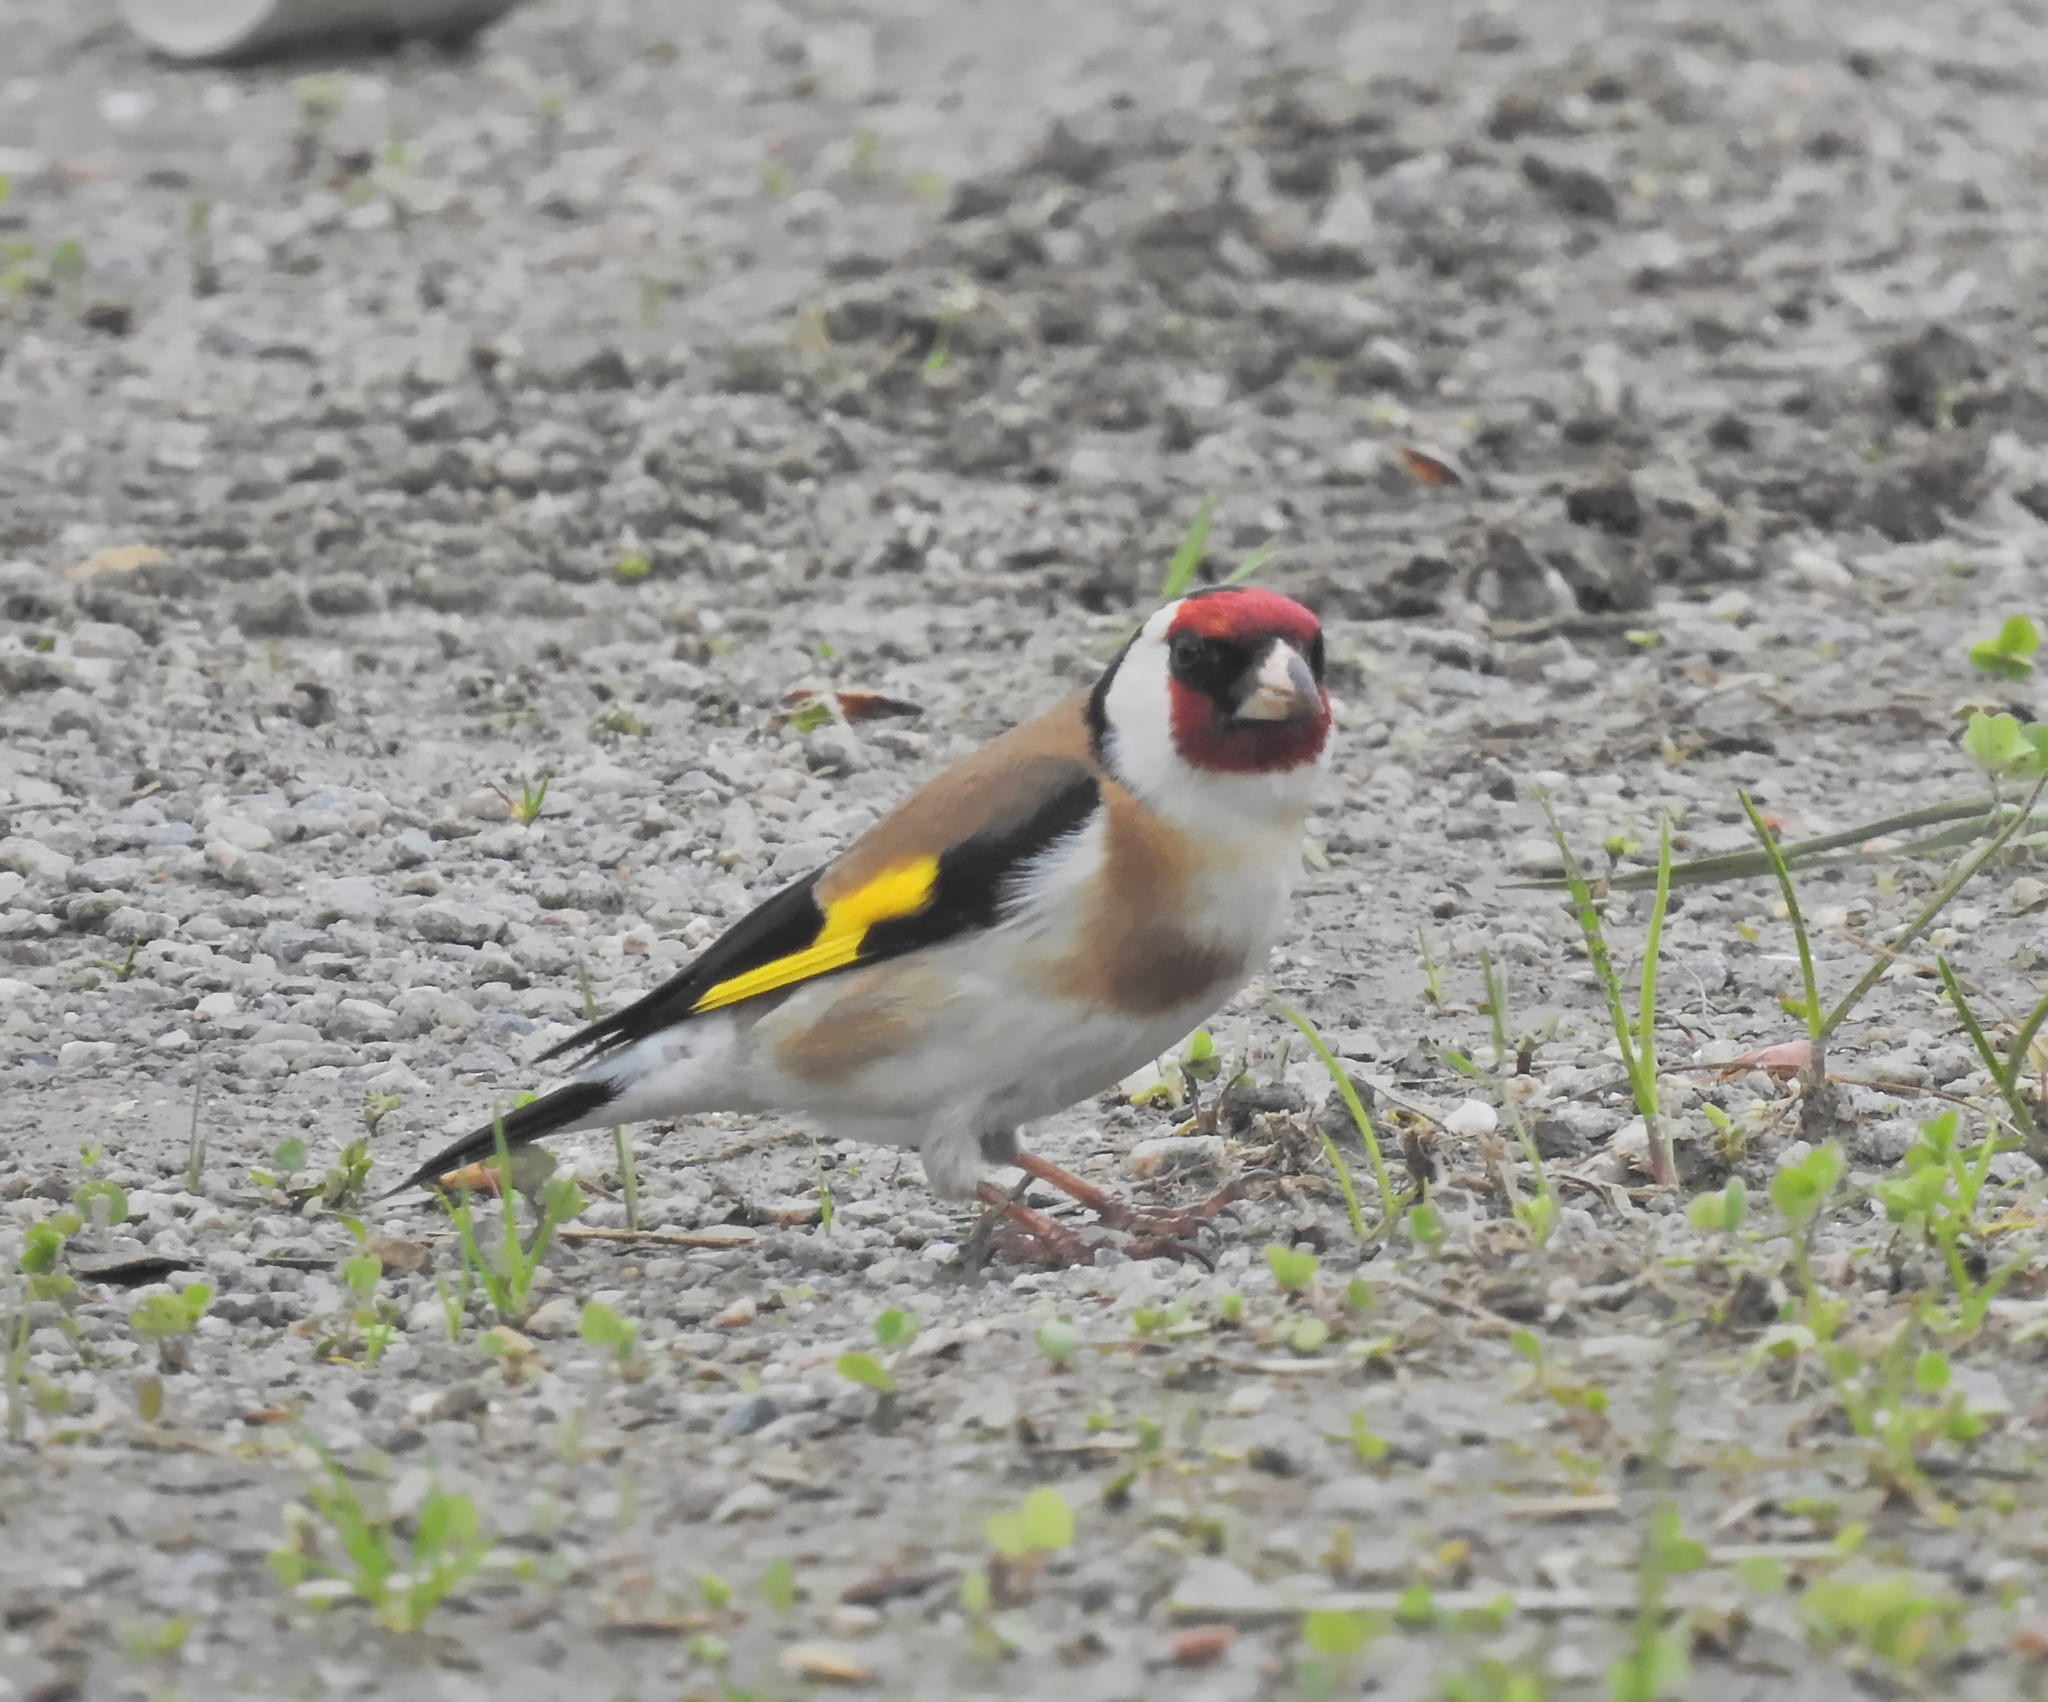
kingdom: Animalia
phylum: Chordata
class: Aves
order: Passeriformes
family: Fringillidae
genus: Carduelis
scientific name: Carduelis carduelis
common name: European goldfinch
